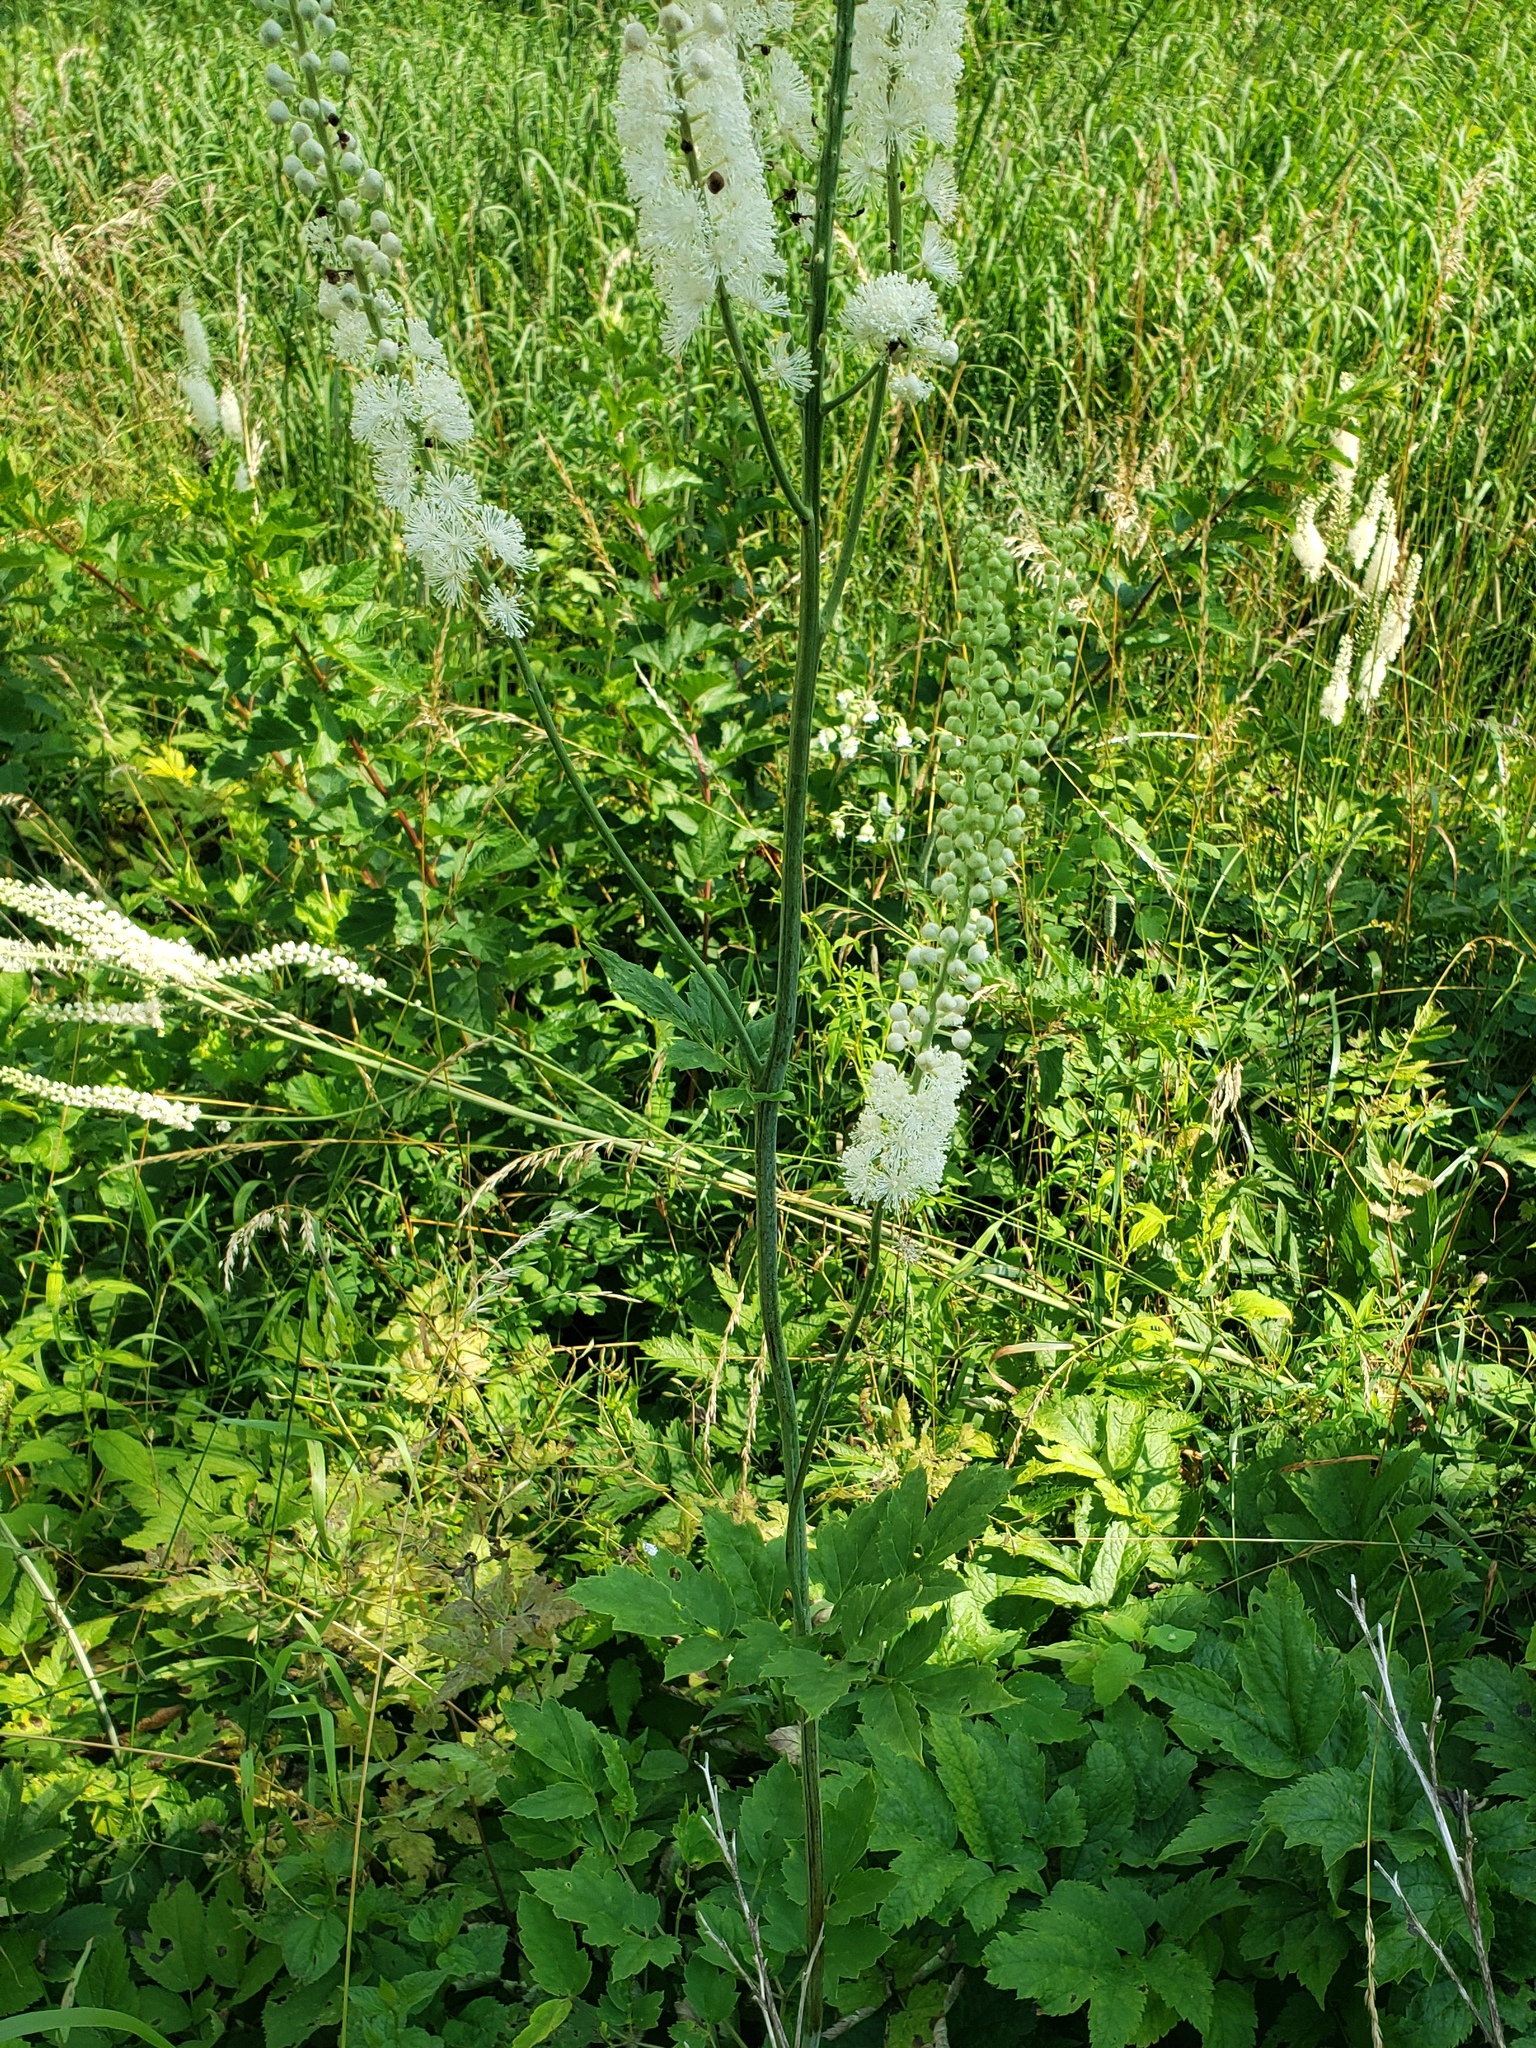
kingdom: Plantae
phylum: Tracheophyta
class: Magnoliopsida
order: Ranunculales
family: Ranunculaceae
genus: Actaea
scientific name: Actaea racemosa
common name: Black cohosh
